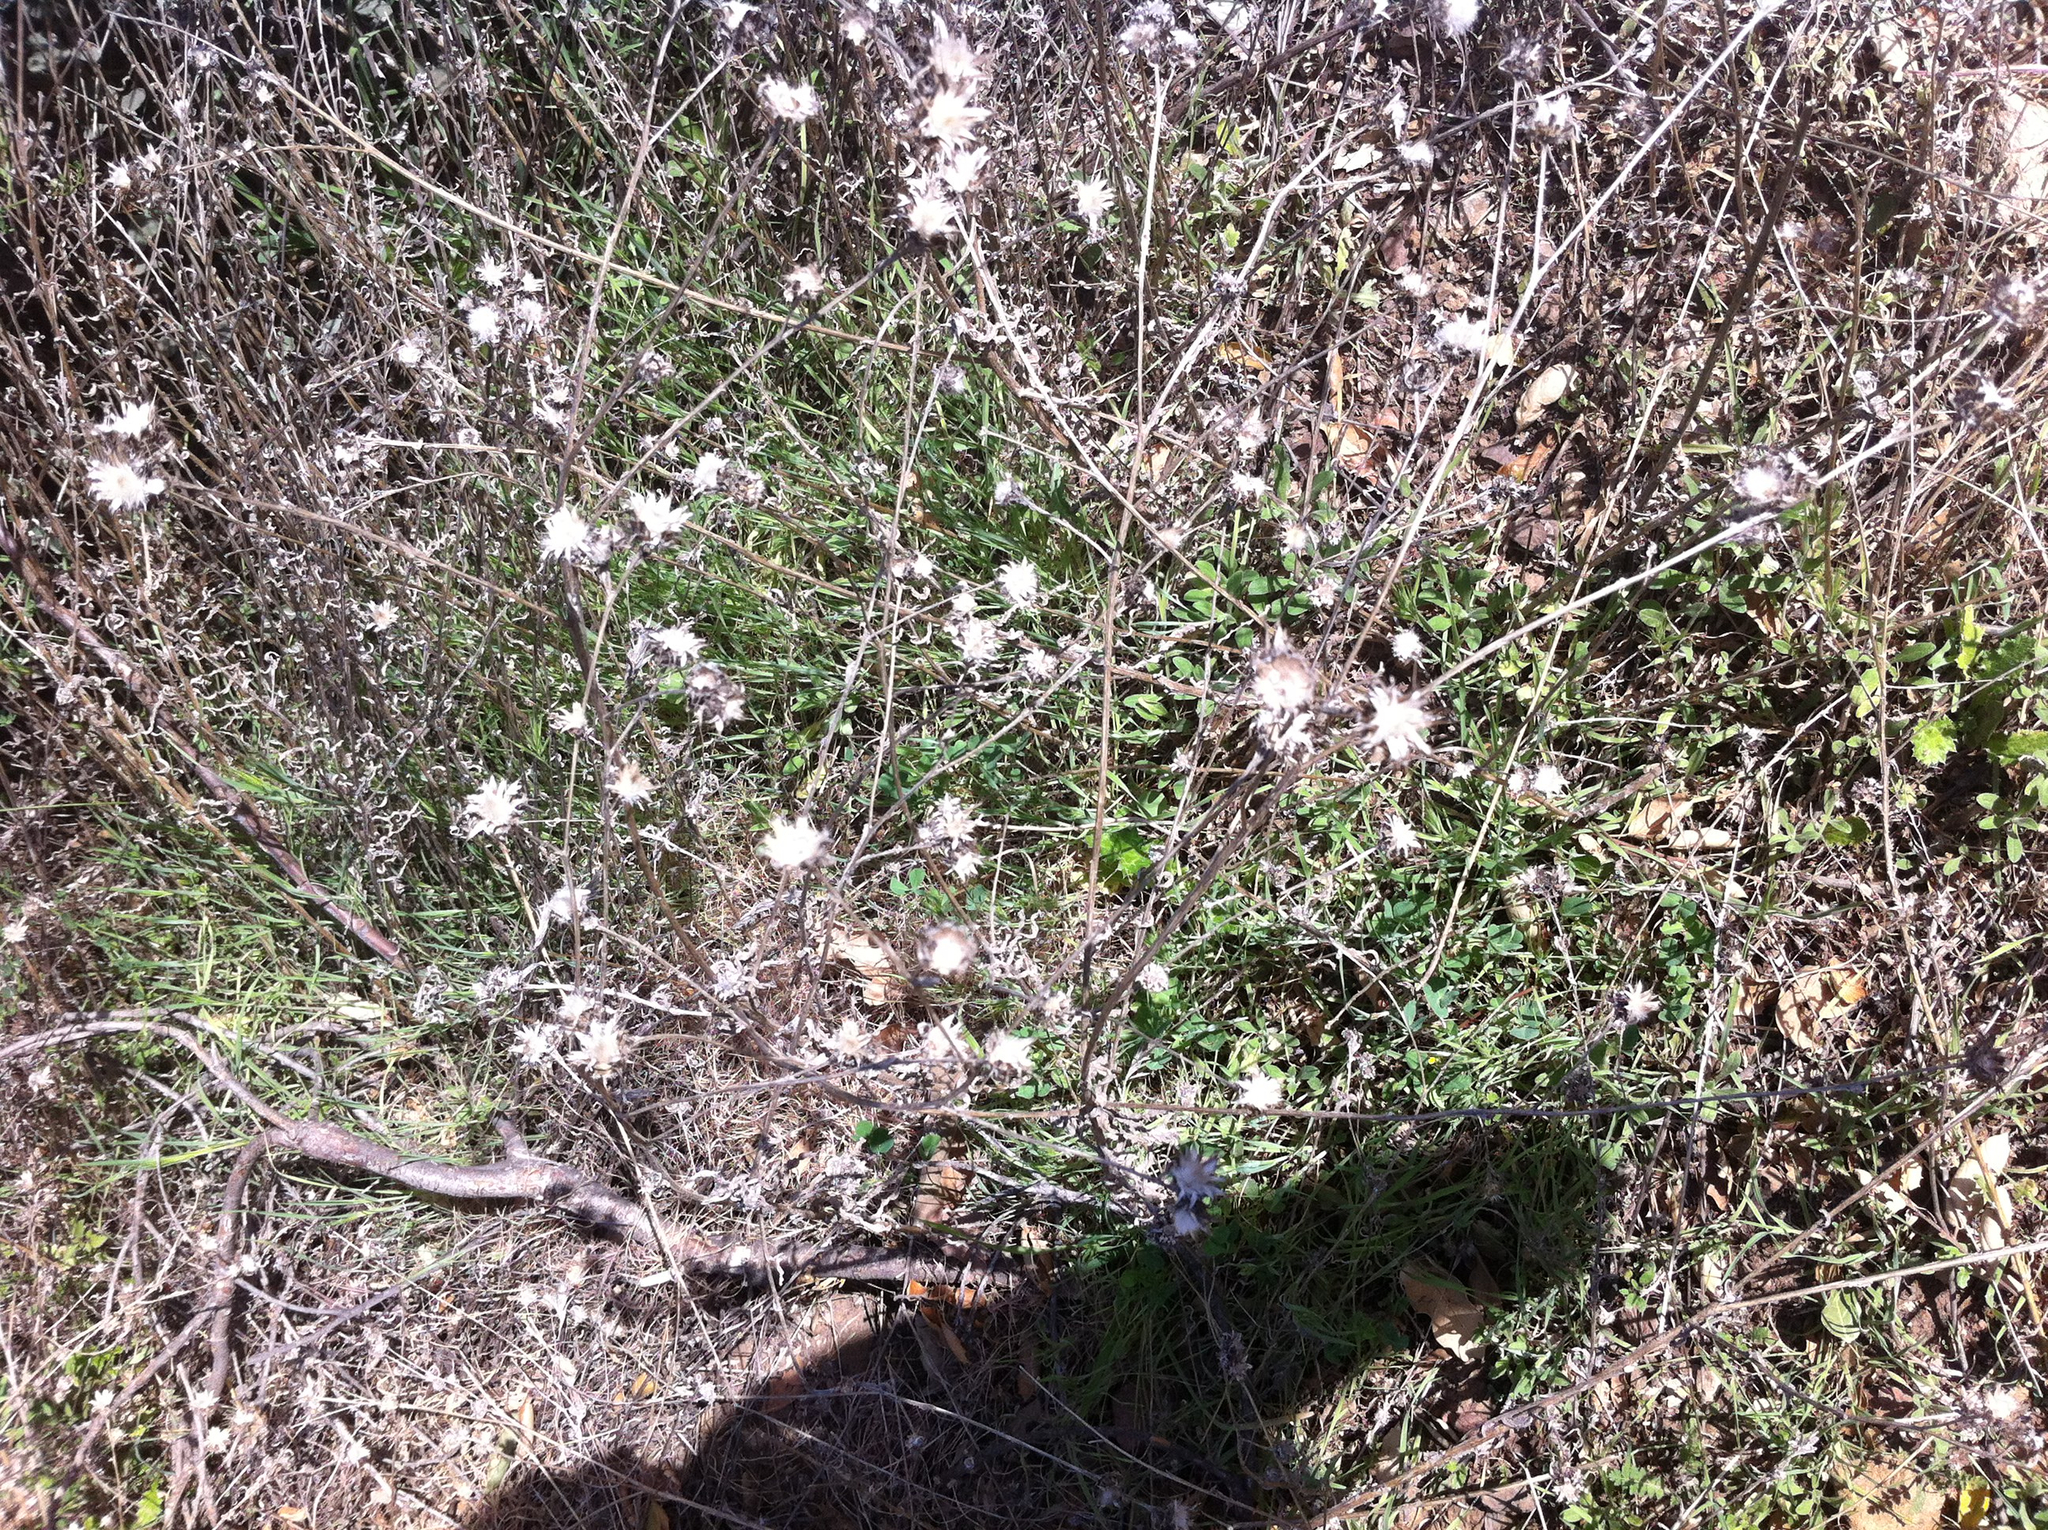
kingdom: Plantae
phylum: Tracheophyta
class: Magnoliopsida
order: Asterales
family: Asteraceae
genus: Centaurea
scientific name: Centaurea melitensis
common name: Maltese star-thistle
